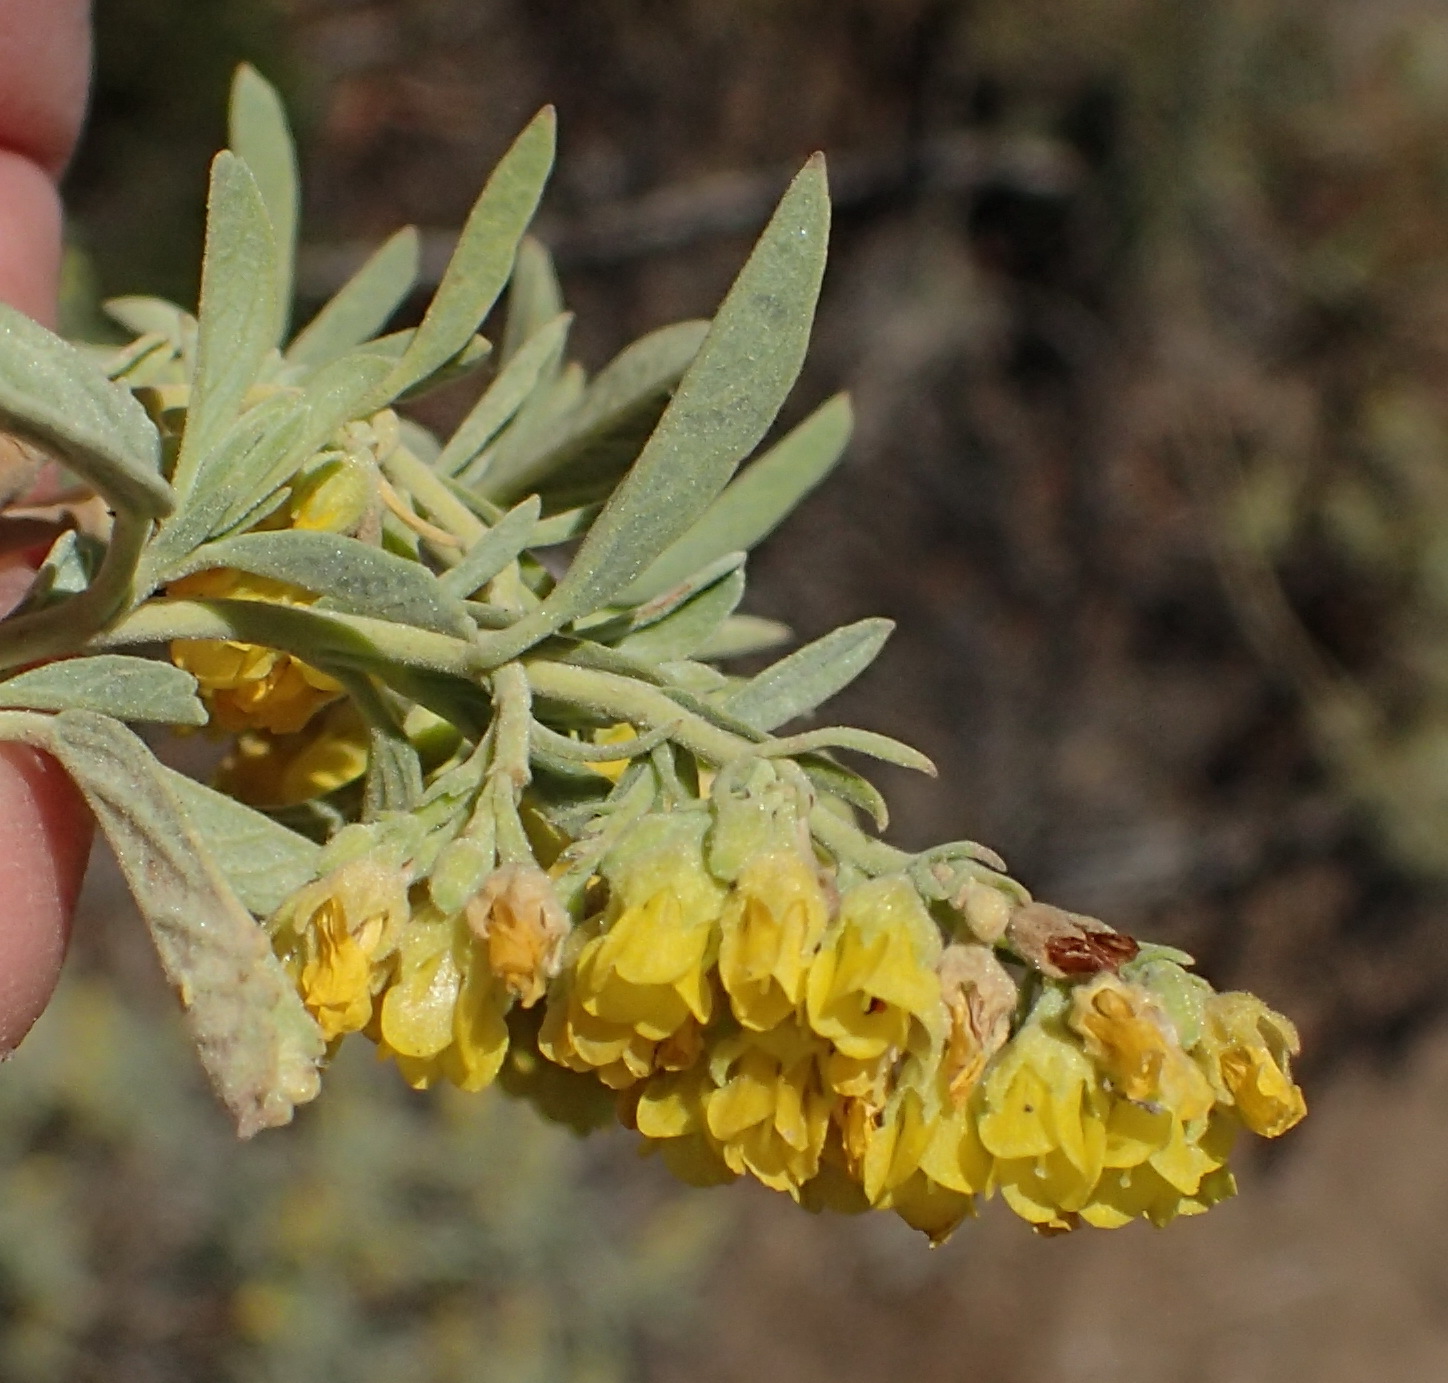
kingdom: Plantae
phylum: Tracheophyta
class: Magnoliopsida
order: Malvales
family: Malvaceae
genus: Hermannia
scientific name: Hermannia holosericea
